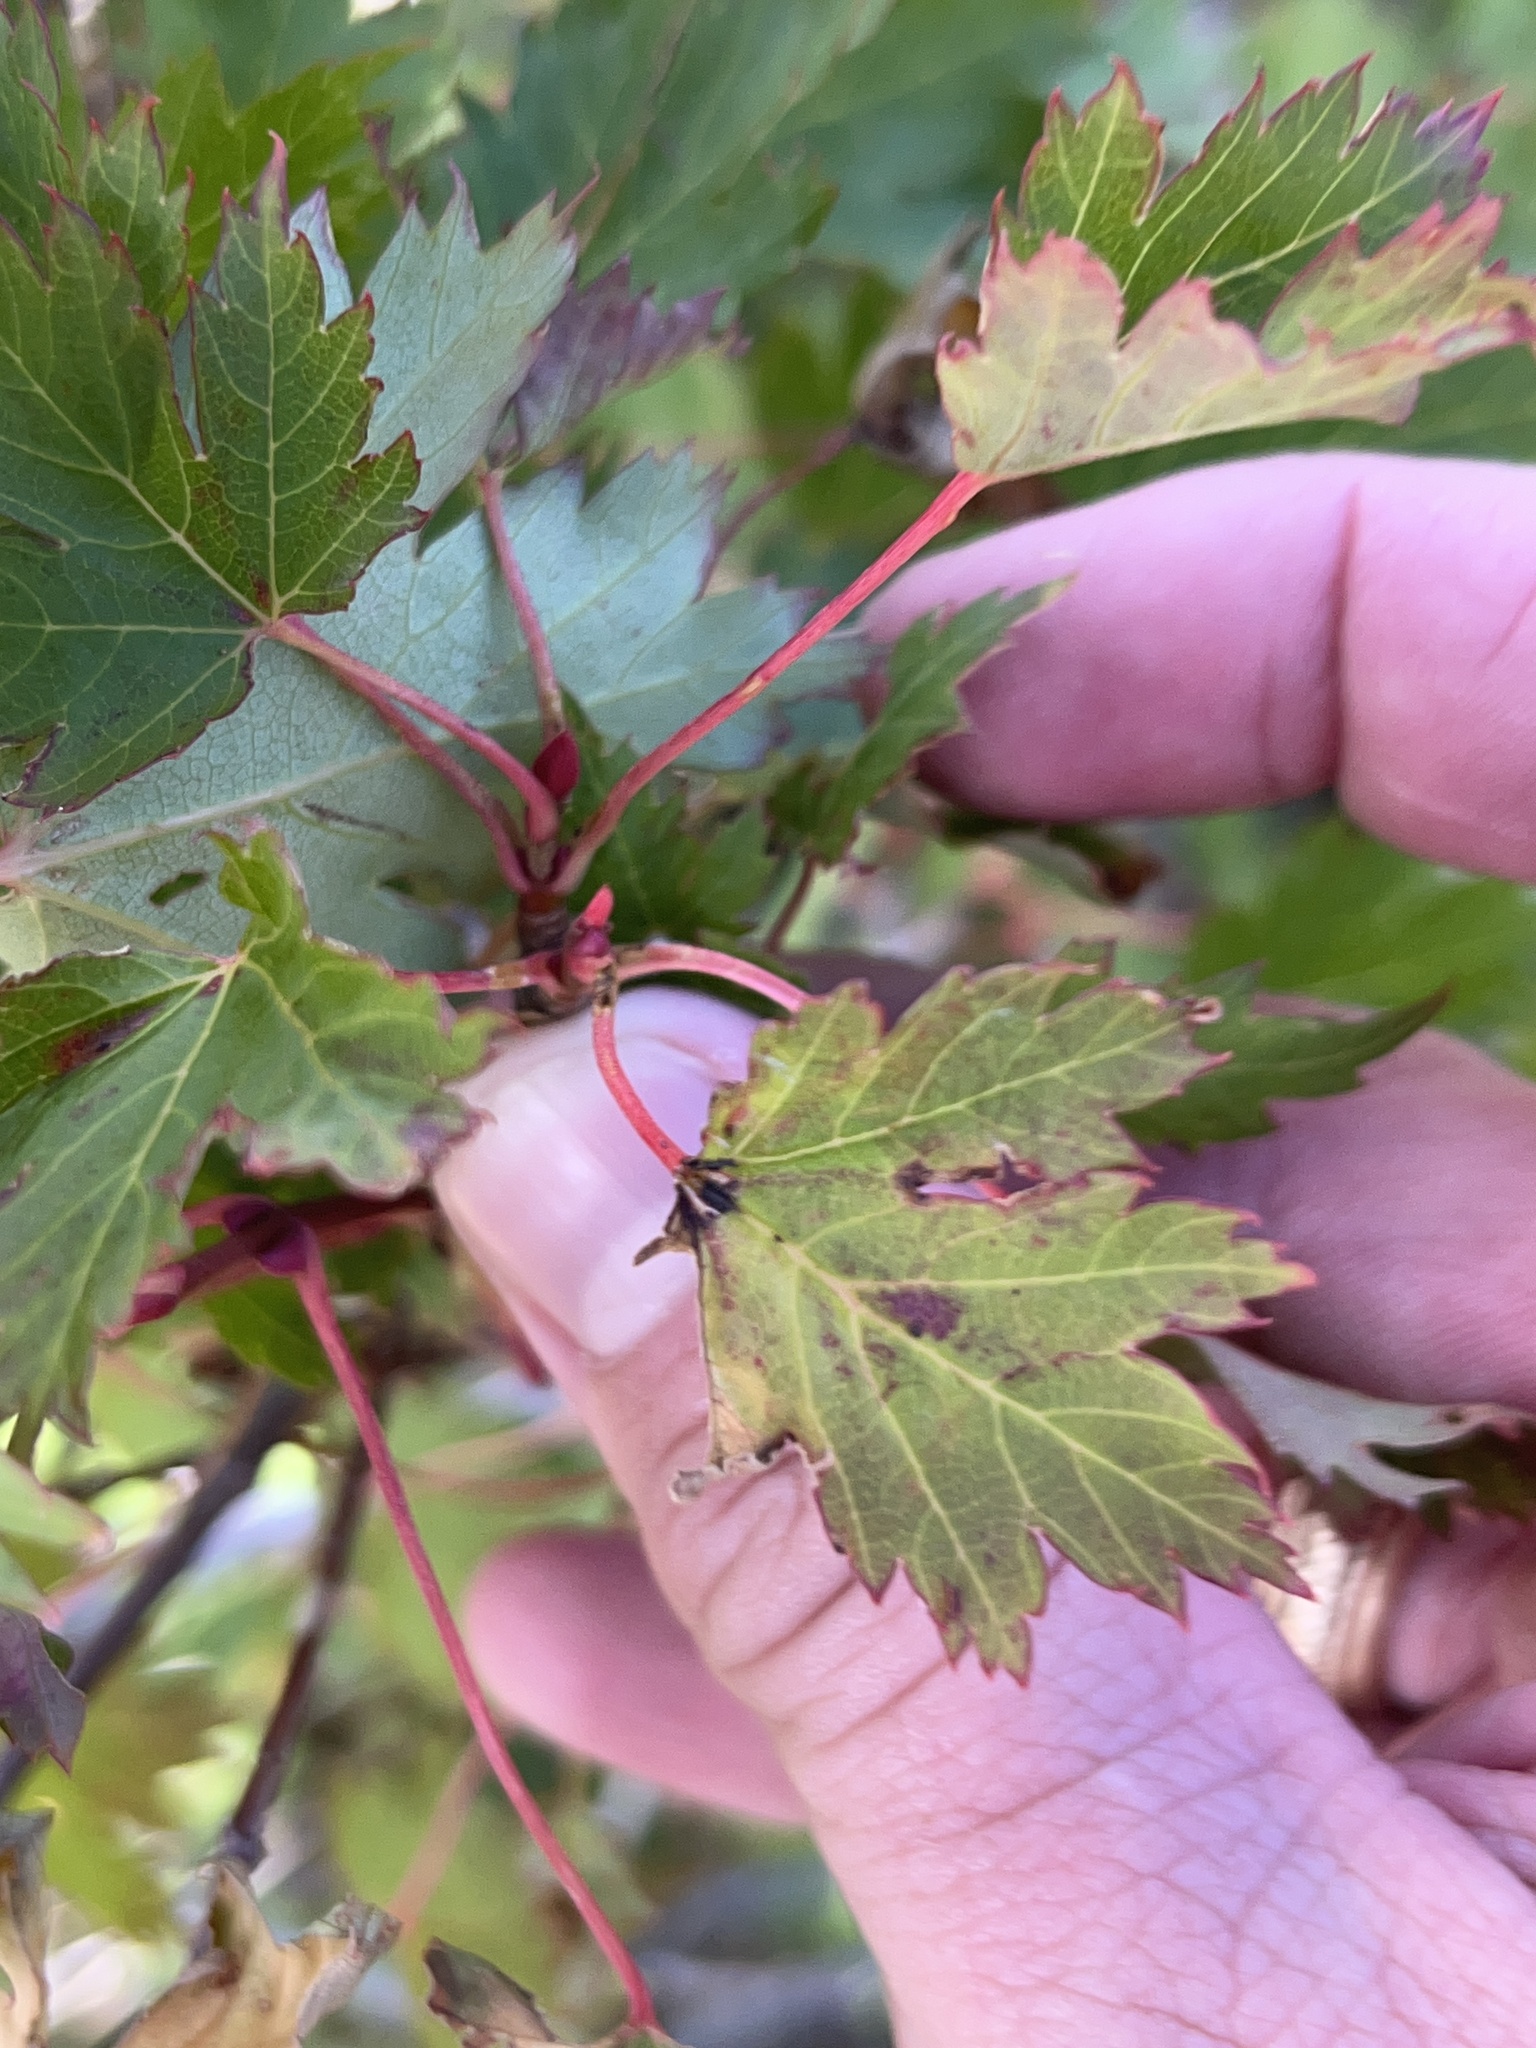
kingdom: Plantae
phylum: Tracheophyta
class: Magnoliopsida
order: Sapindales
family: Sapindaceae
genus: Acer
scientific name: Acer glabrum
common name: Rocky mountain maple
